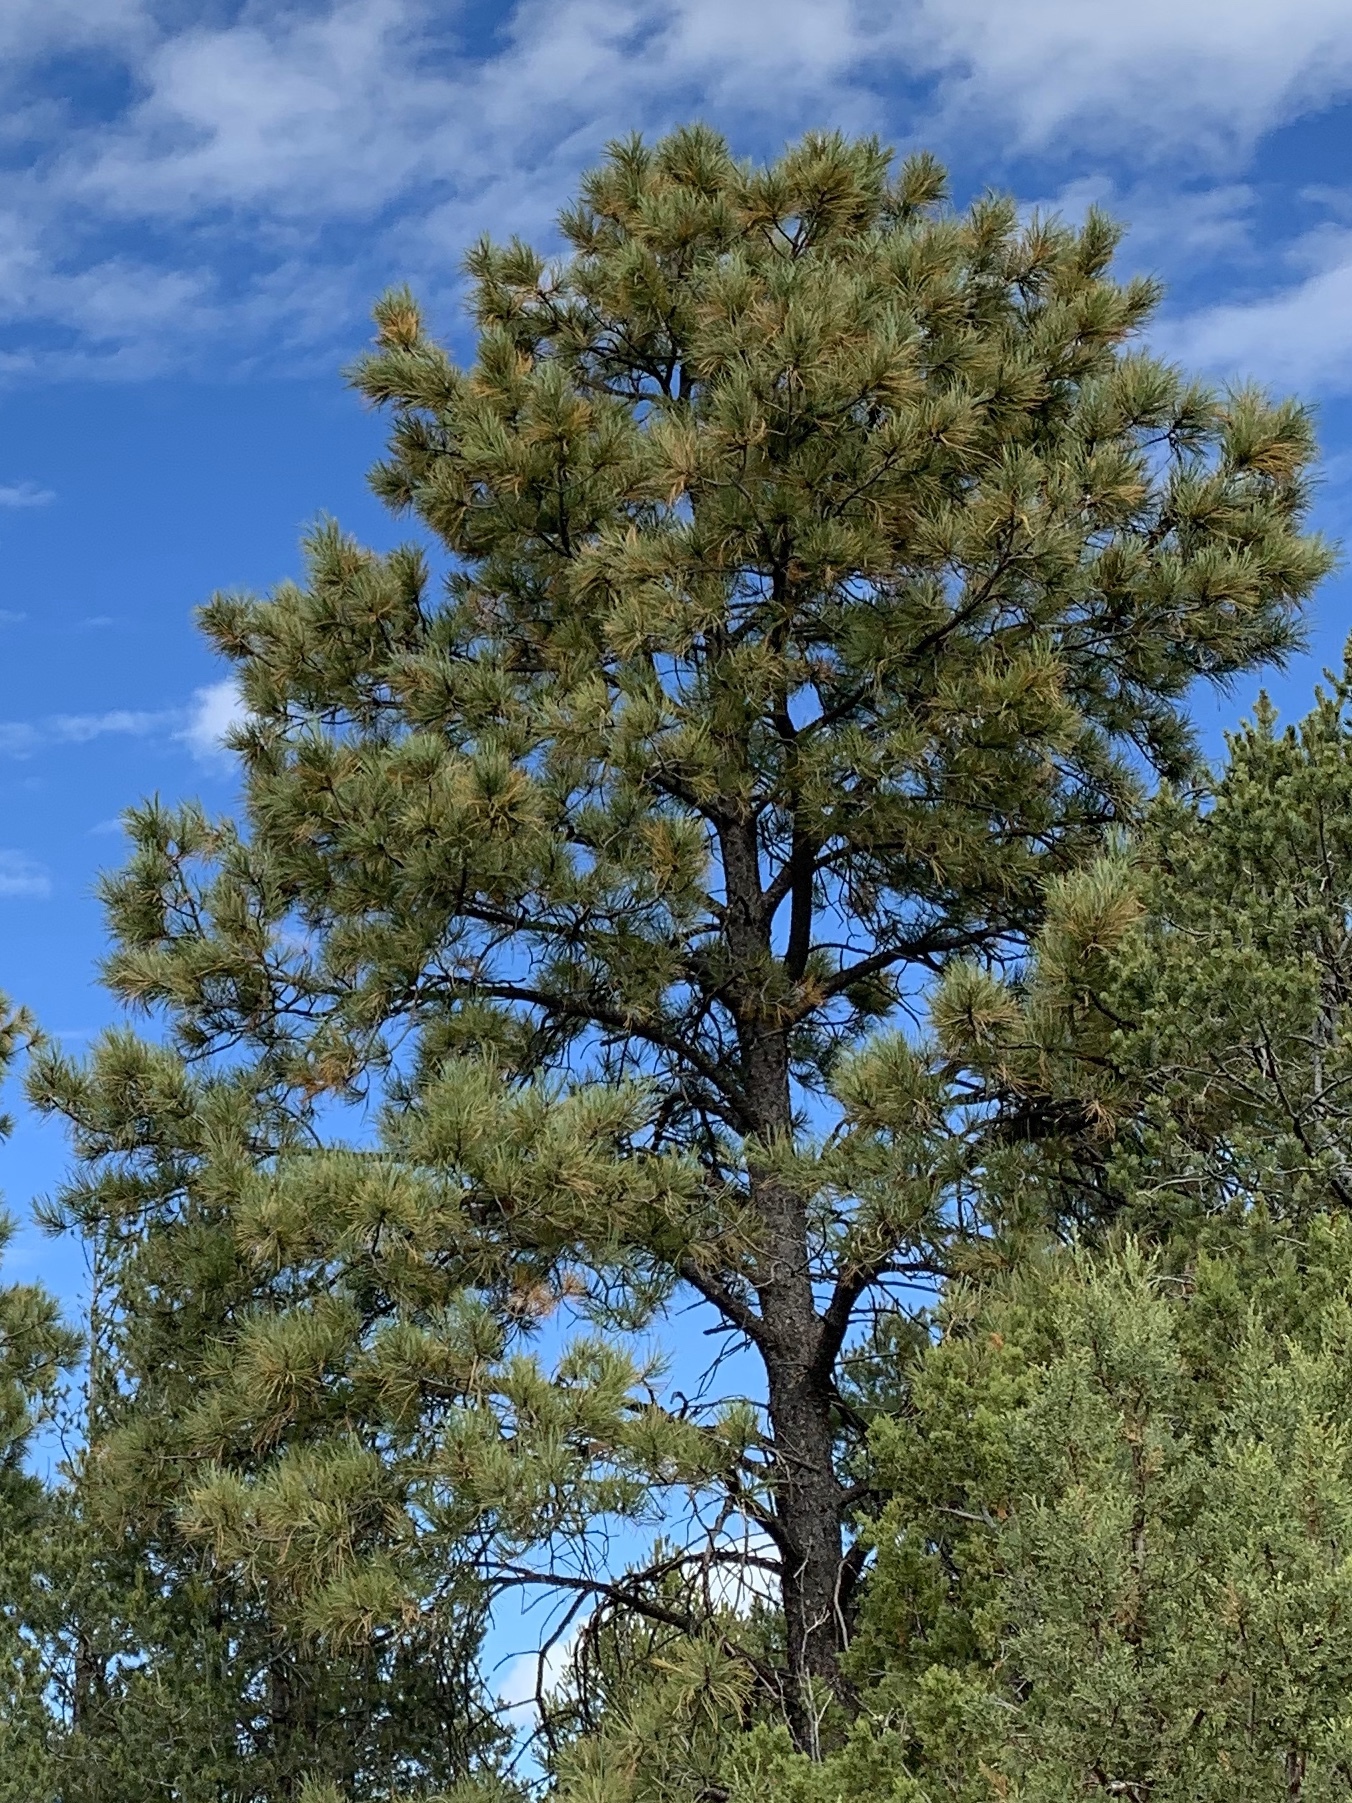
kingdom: Plantae
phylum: Tracheophyta
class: Pinopsida
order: Pinales
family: Pinaceae
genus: Pinus
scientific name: Pinus ponderosa
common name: Western yellow-pine
